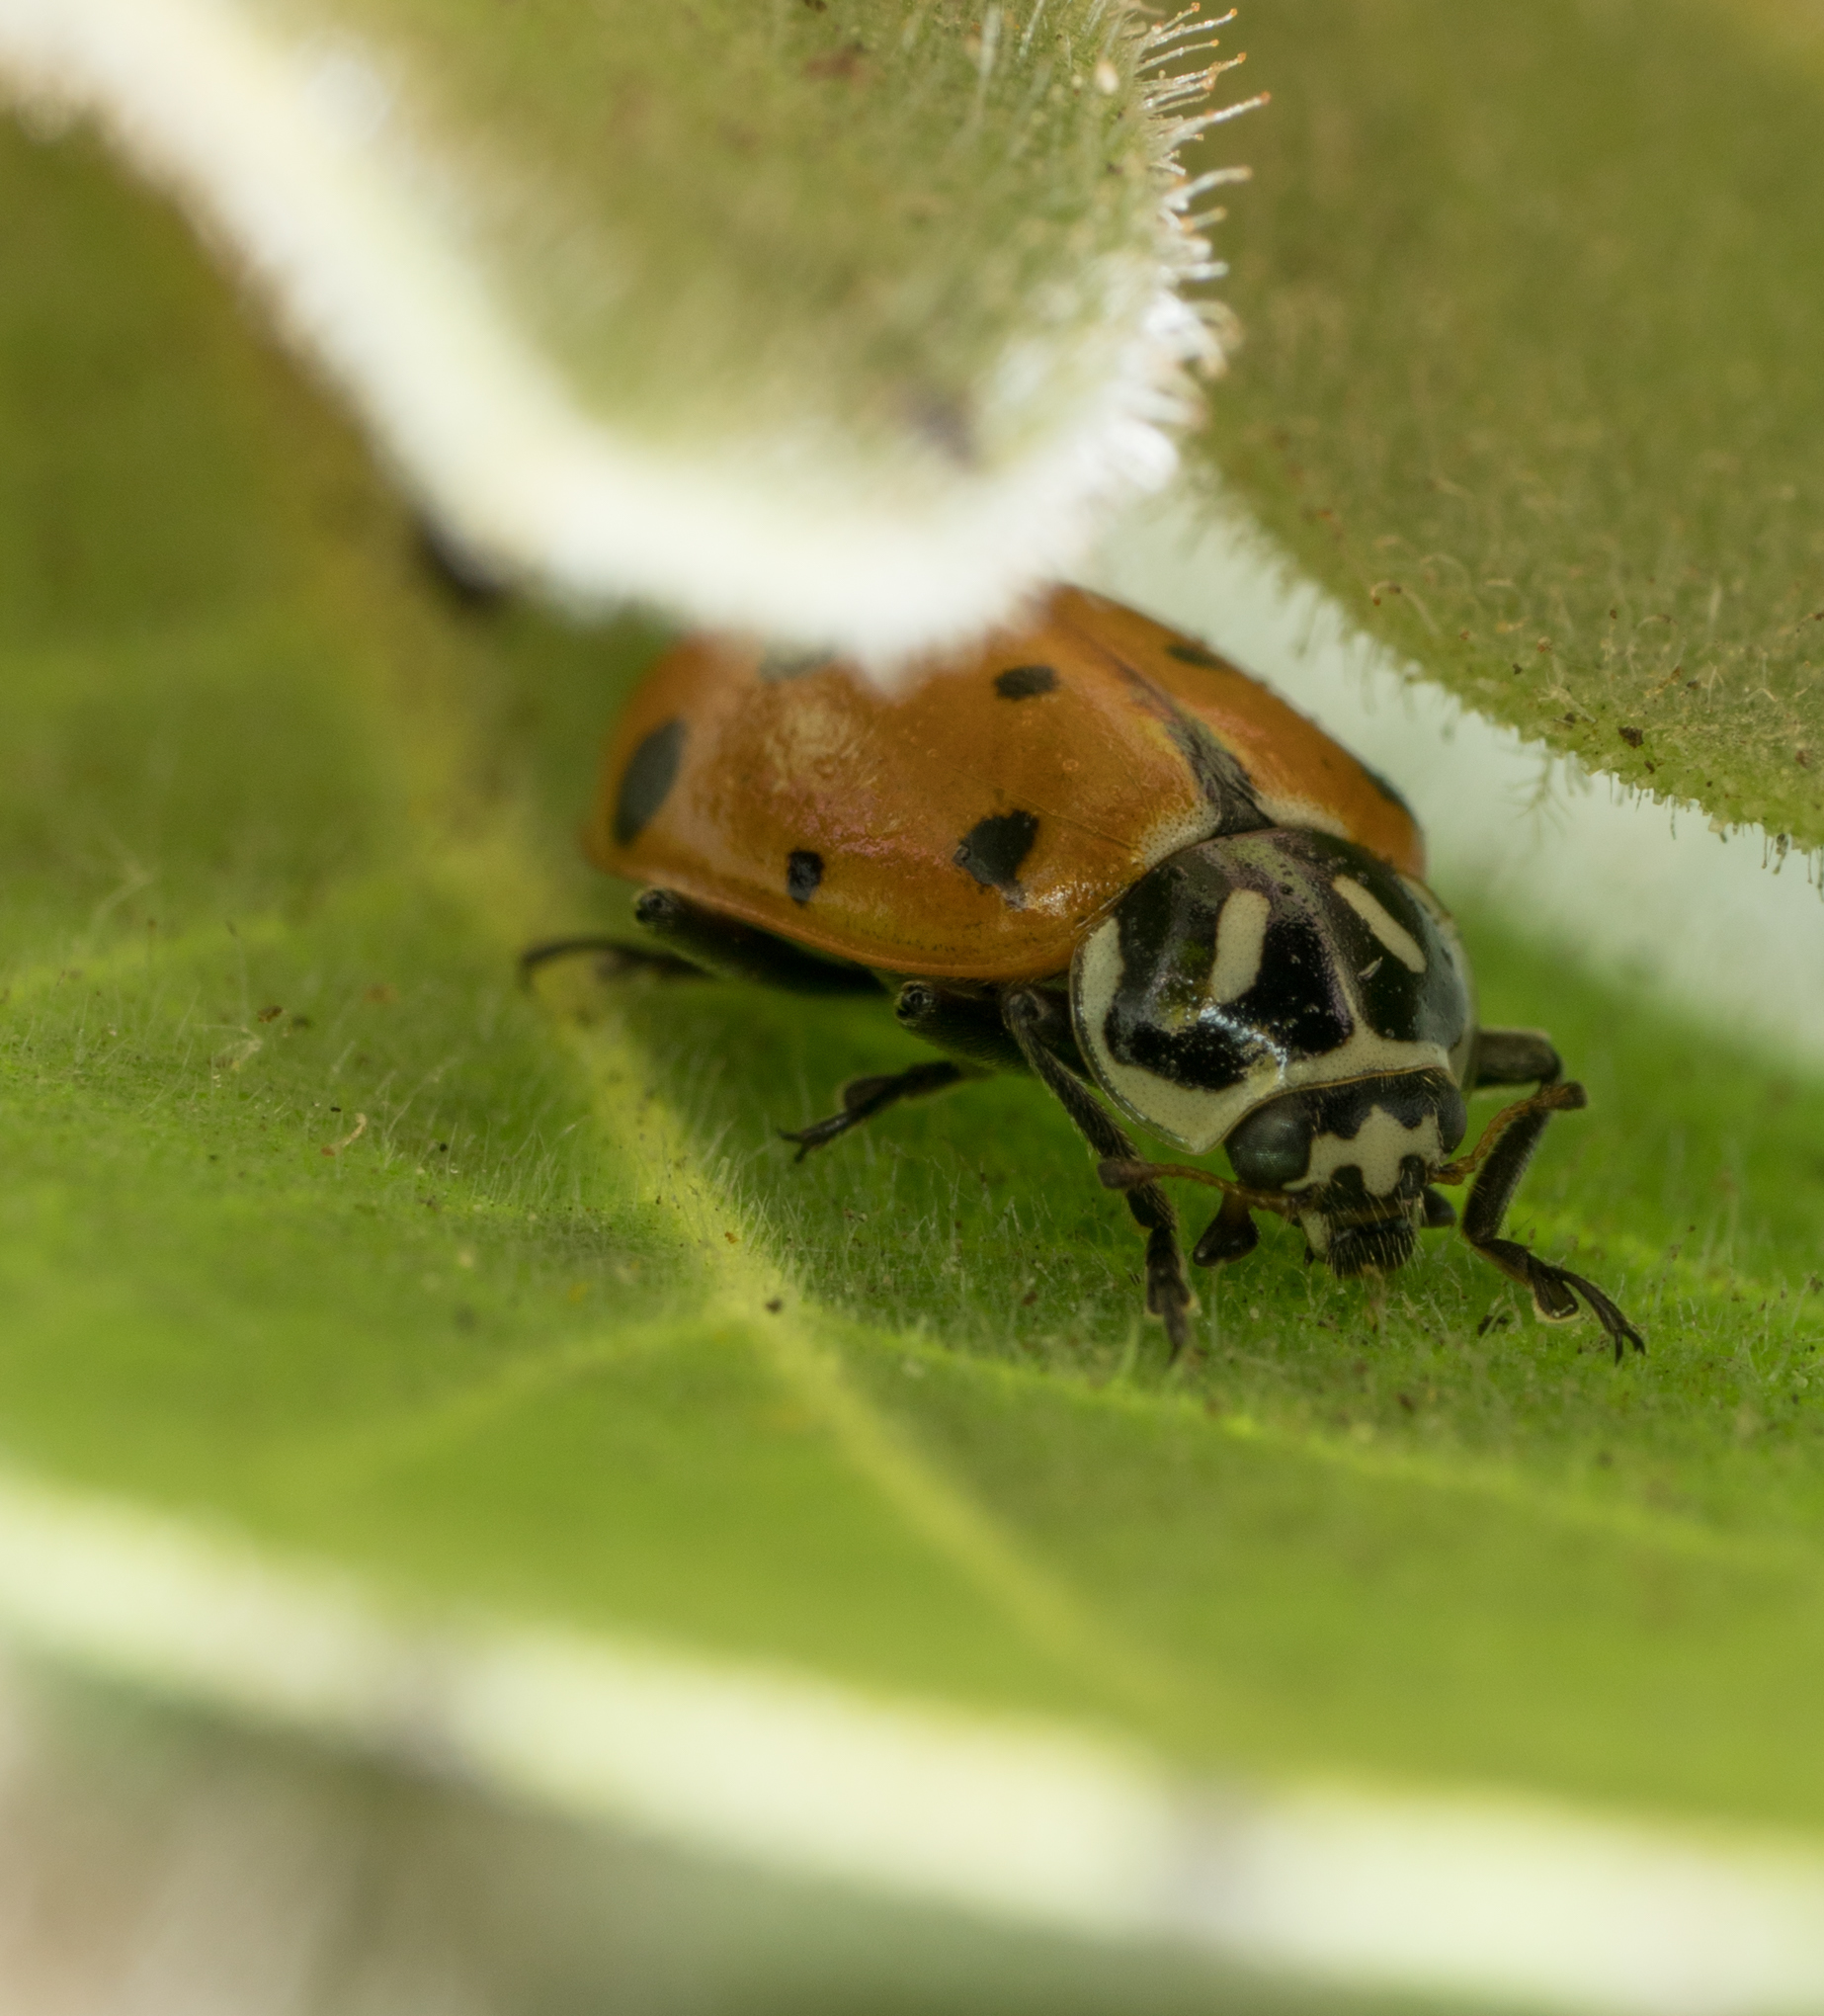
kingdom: Animalia
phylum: Arthropoda
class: Insecta
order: Coleoptera
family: Coccinellidae
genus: Hippodamia
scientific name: Hippodamia convergens
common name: Convergent lady beetle
